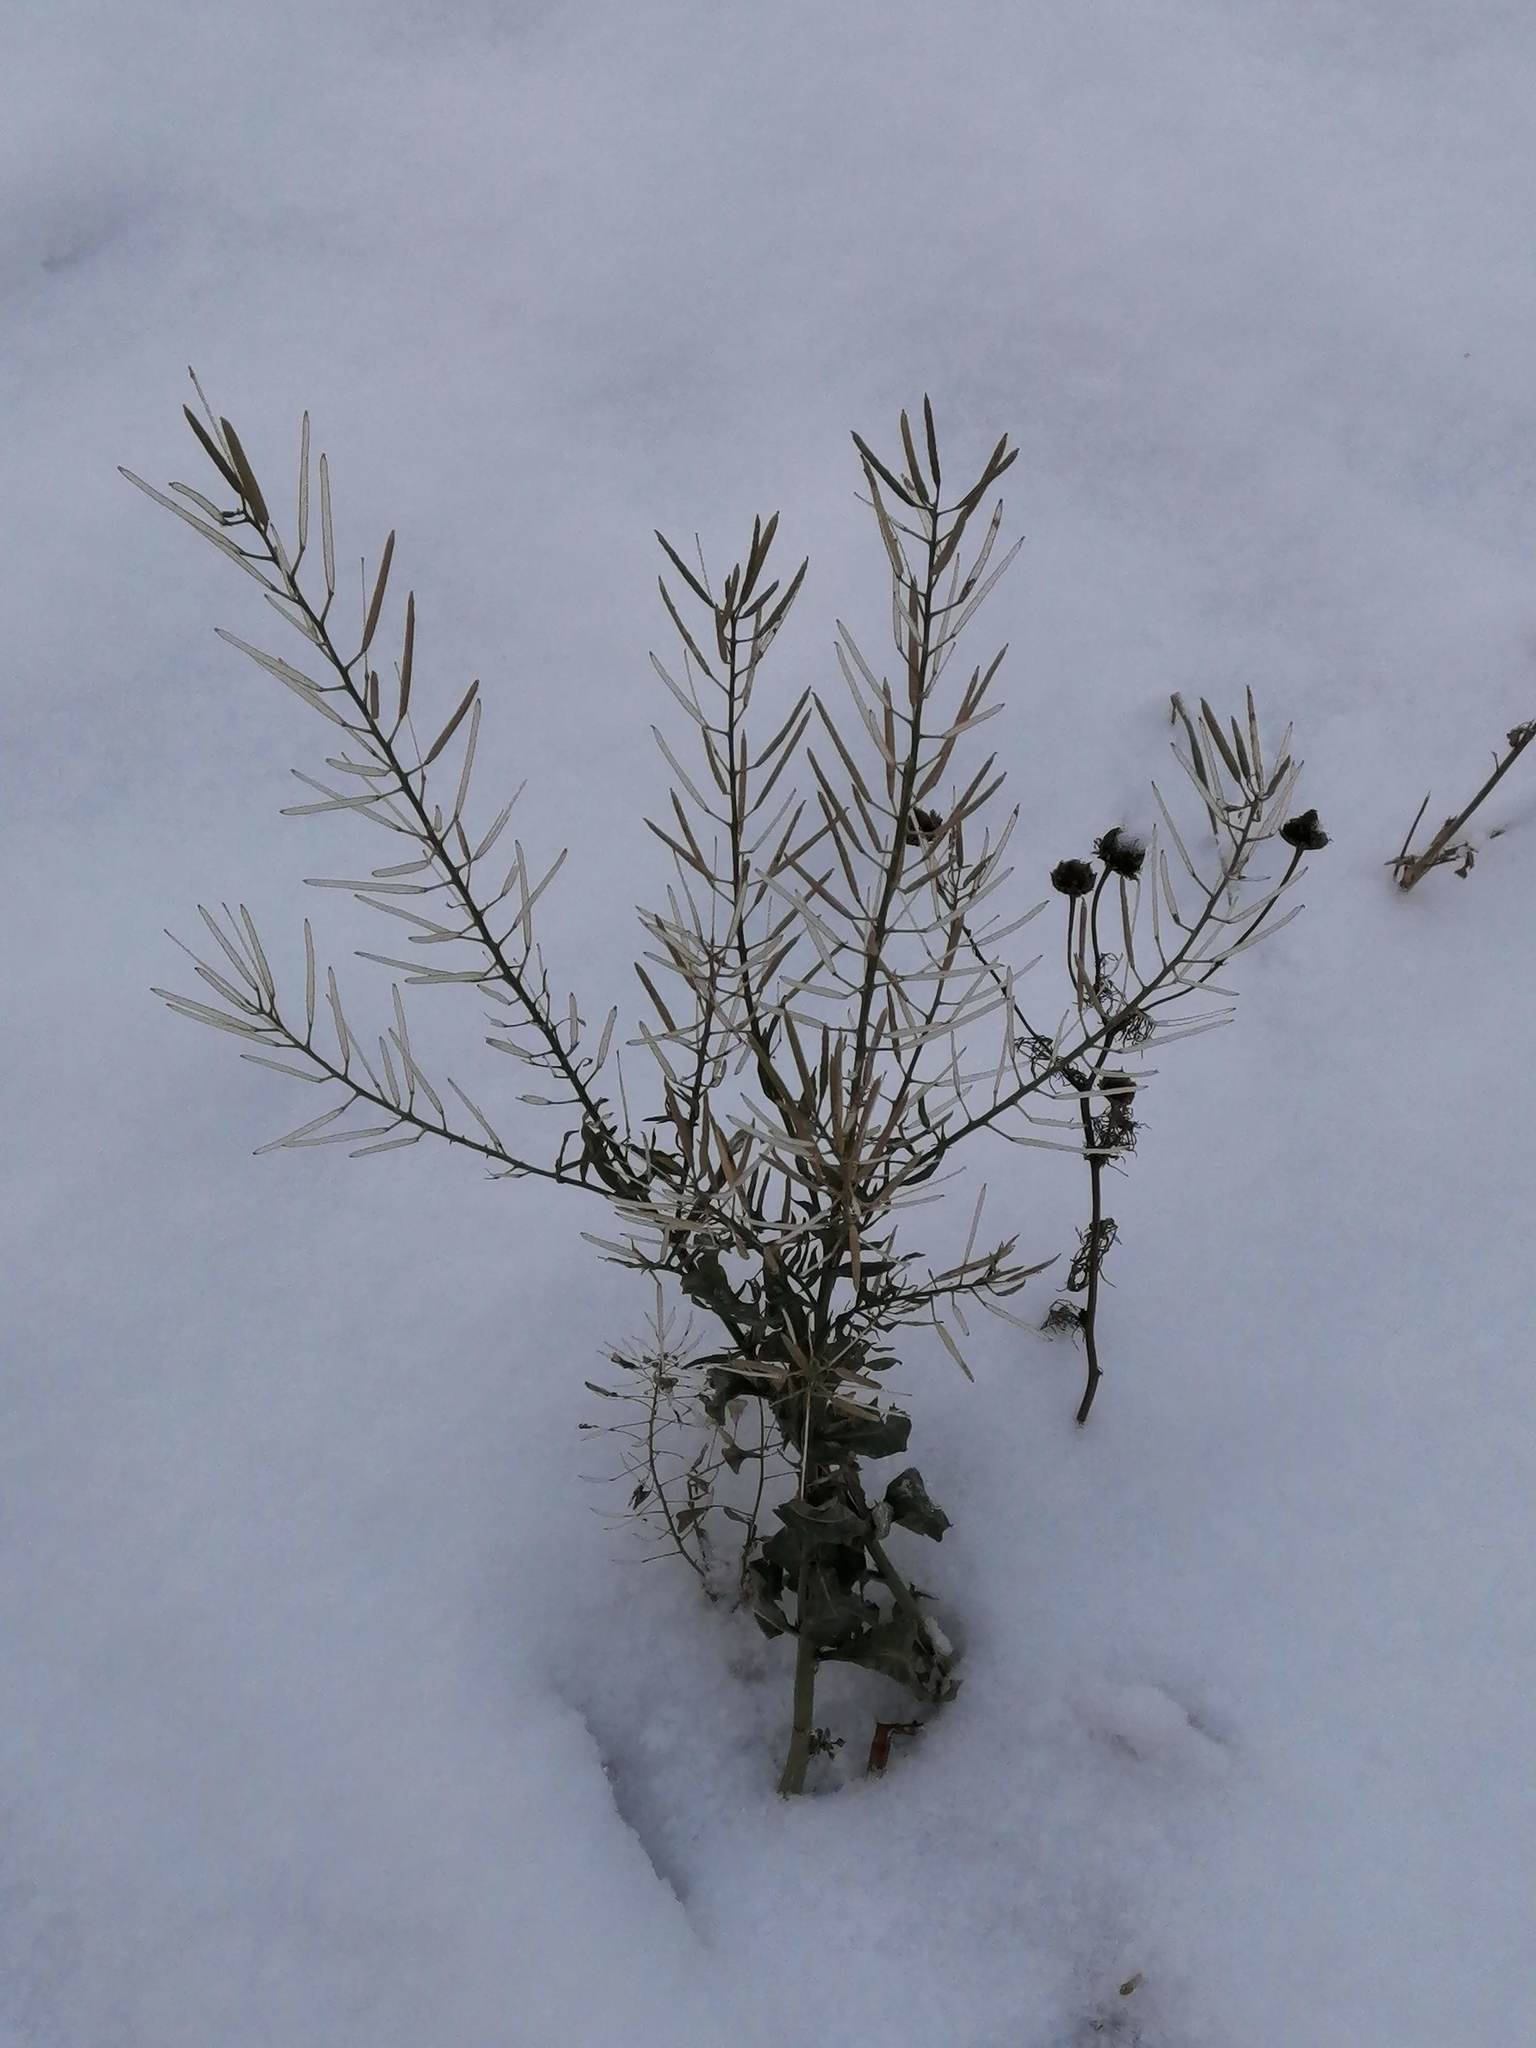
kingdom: Plantae
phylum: Tracheophyta
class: Magnoliopsida
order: Brassicales
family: Brassicaceae
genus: Erysimum
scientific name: Erysimum cheiranthoides
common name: Treacle mustard
